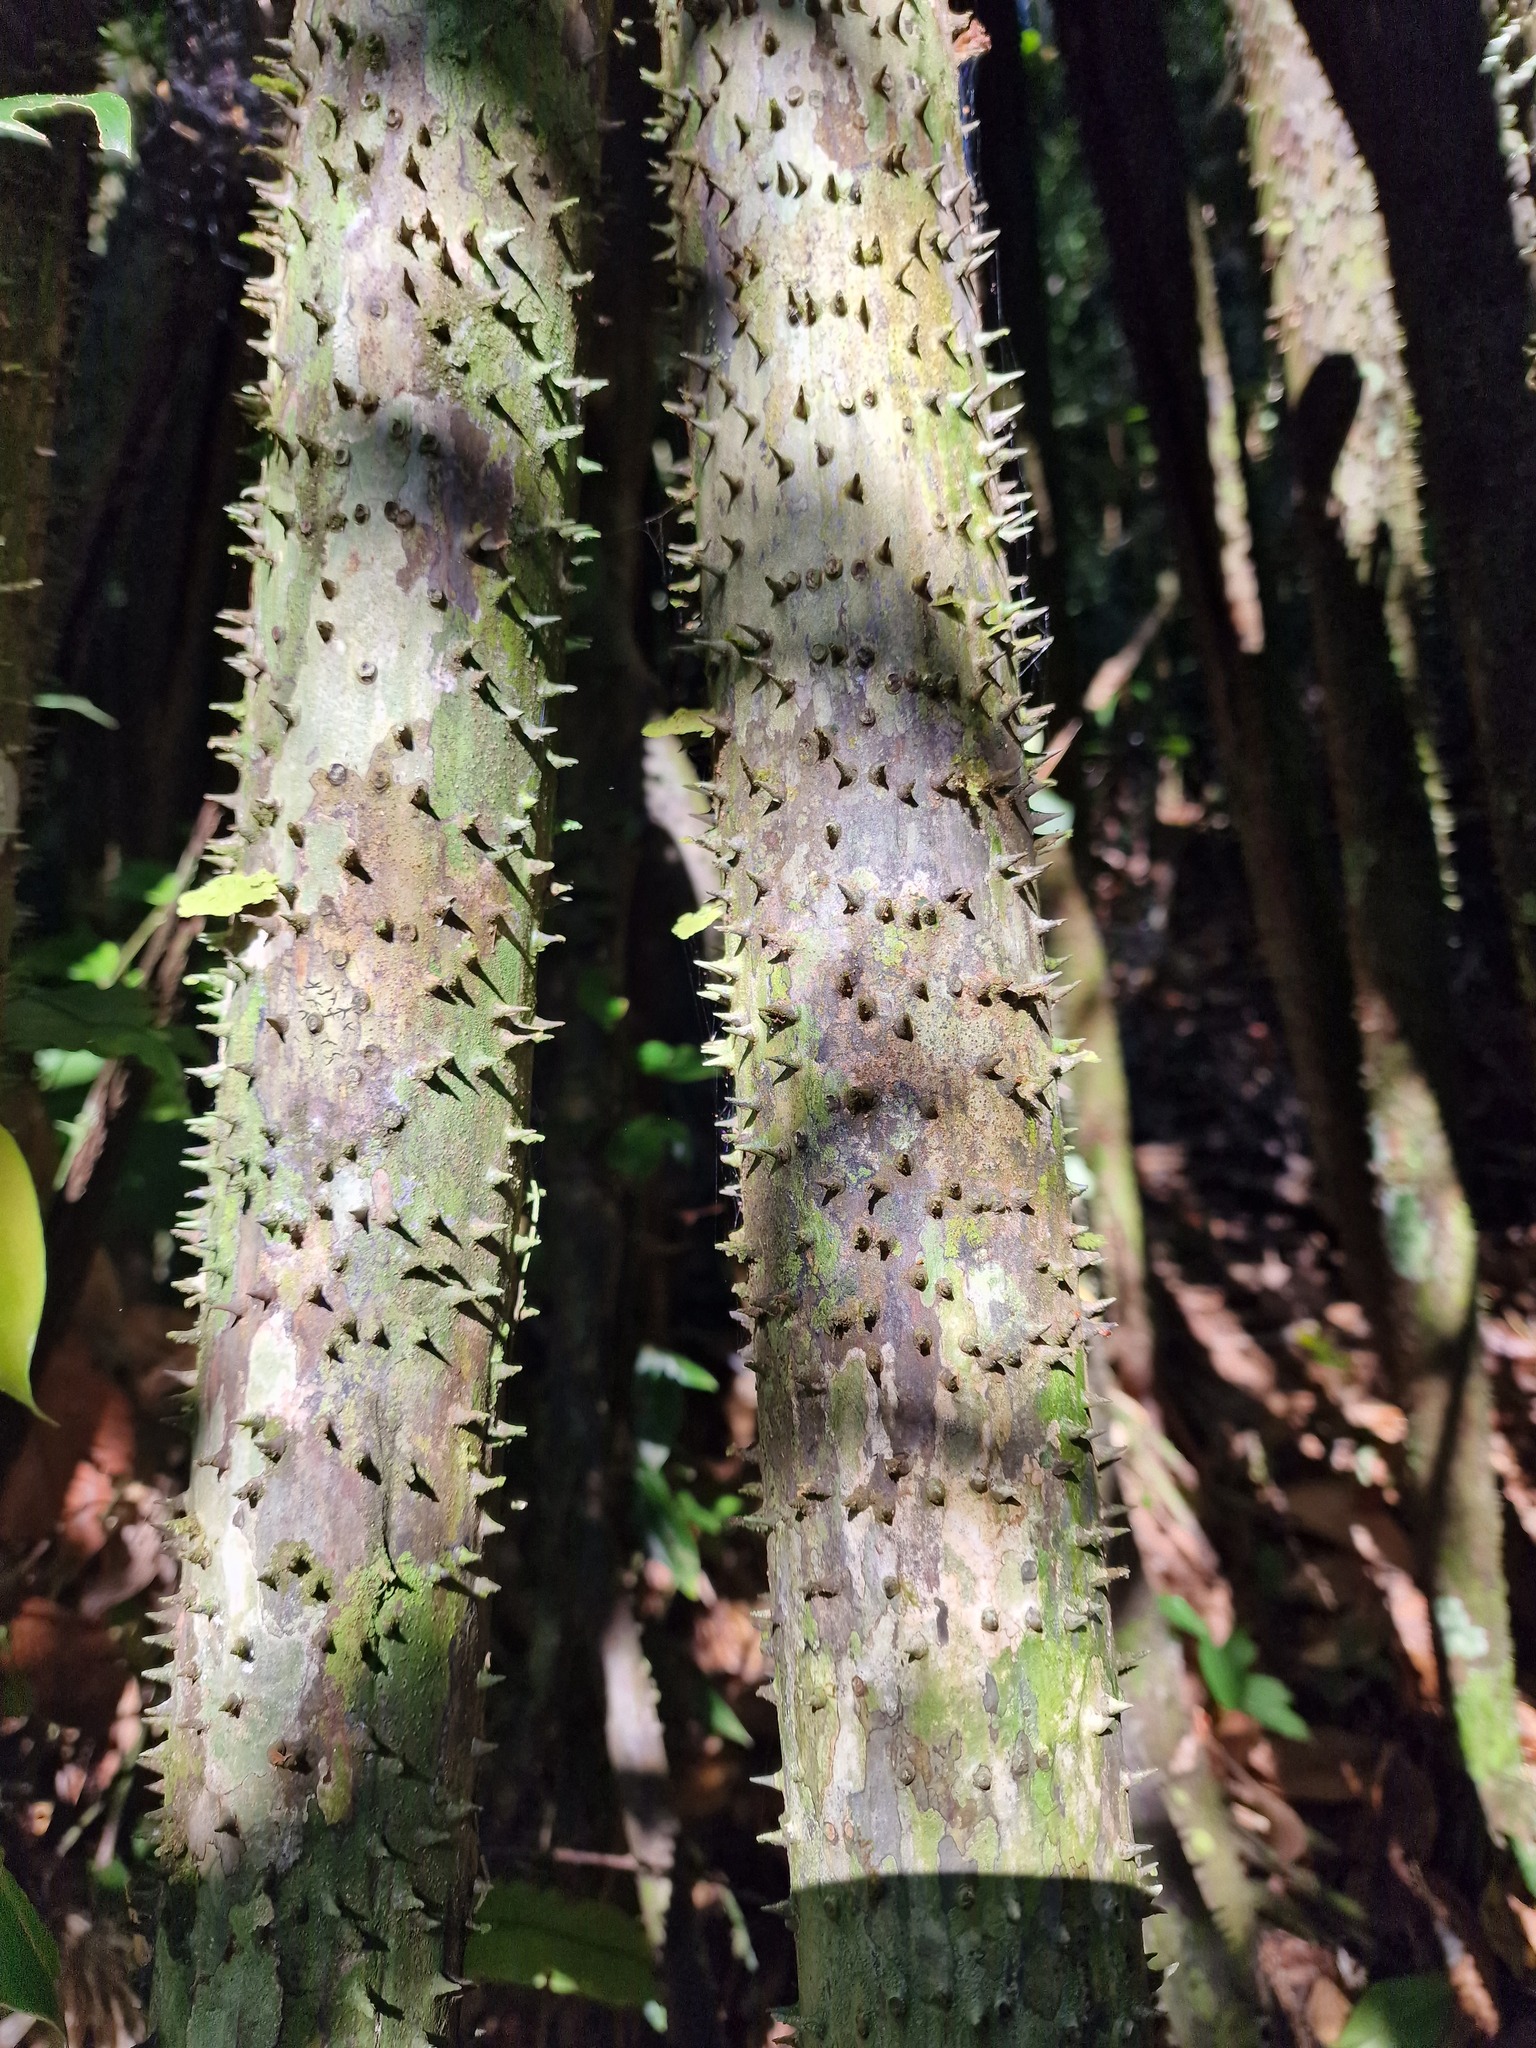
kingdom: Plantae
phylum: Tracheophyta
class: Liliopsida
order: Arecales
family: Arecaceae
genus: Socratea
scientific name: Socratea exorrhiza
